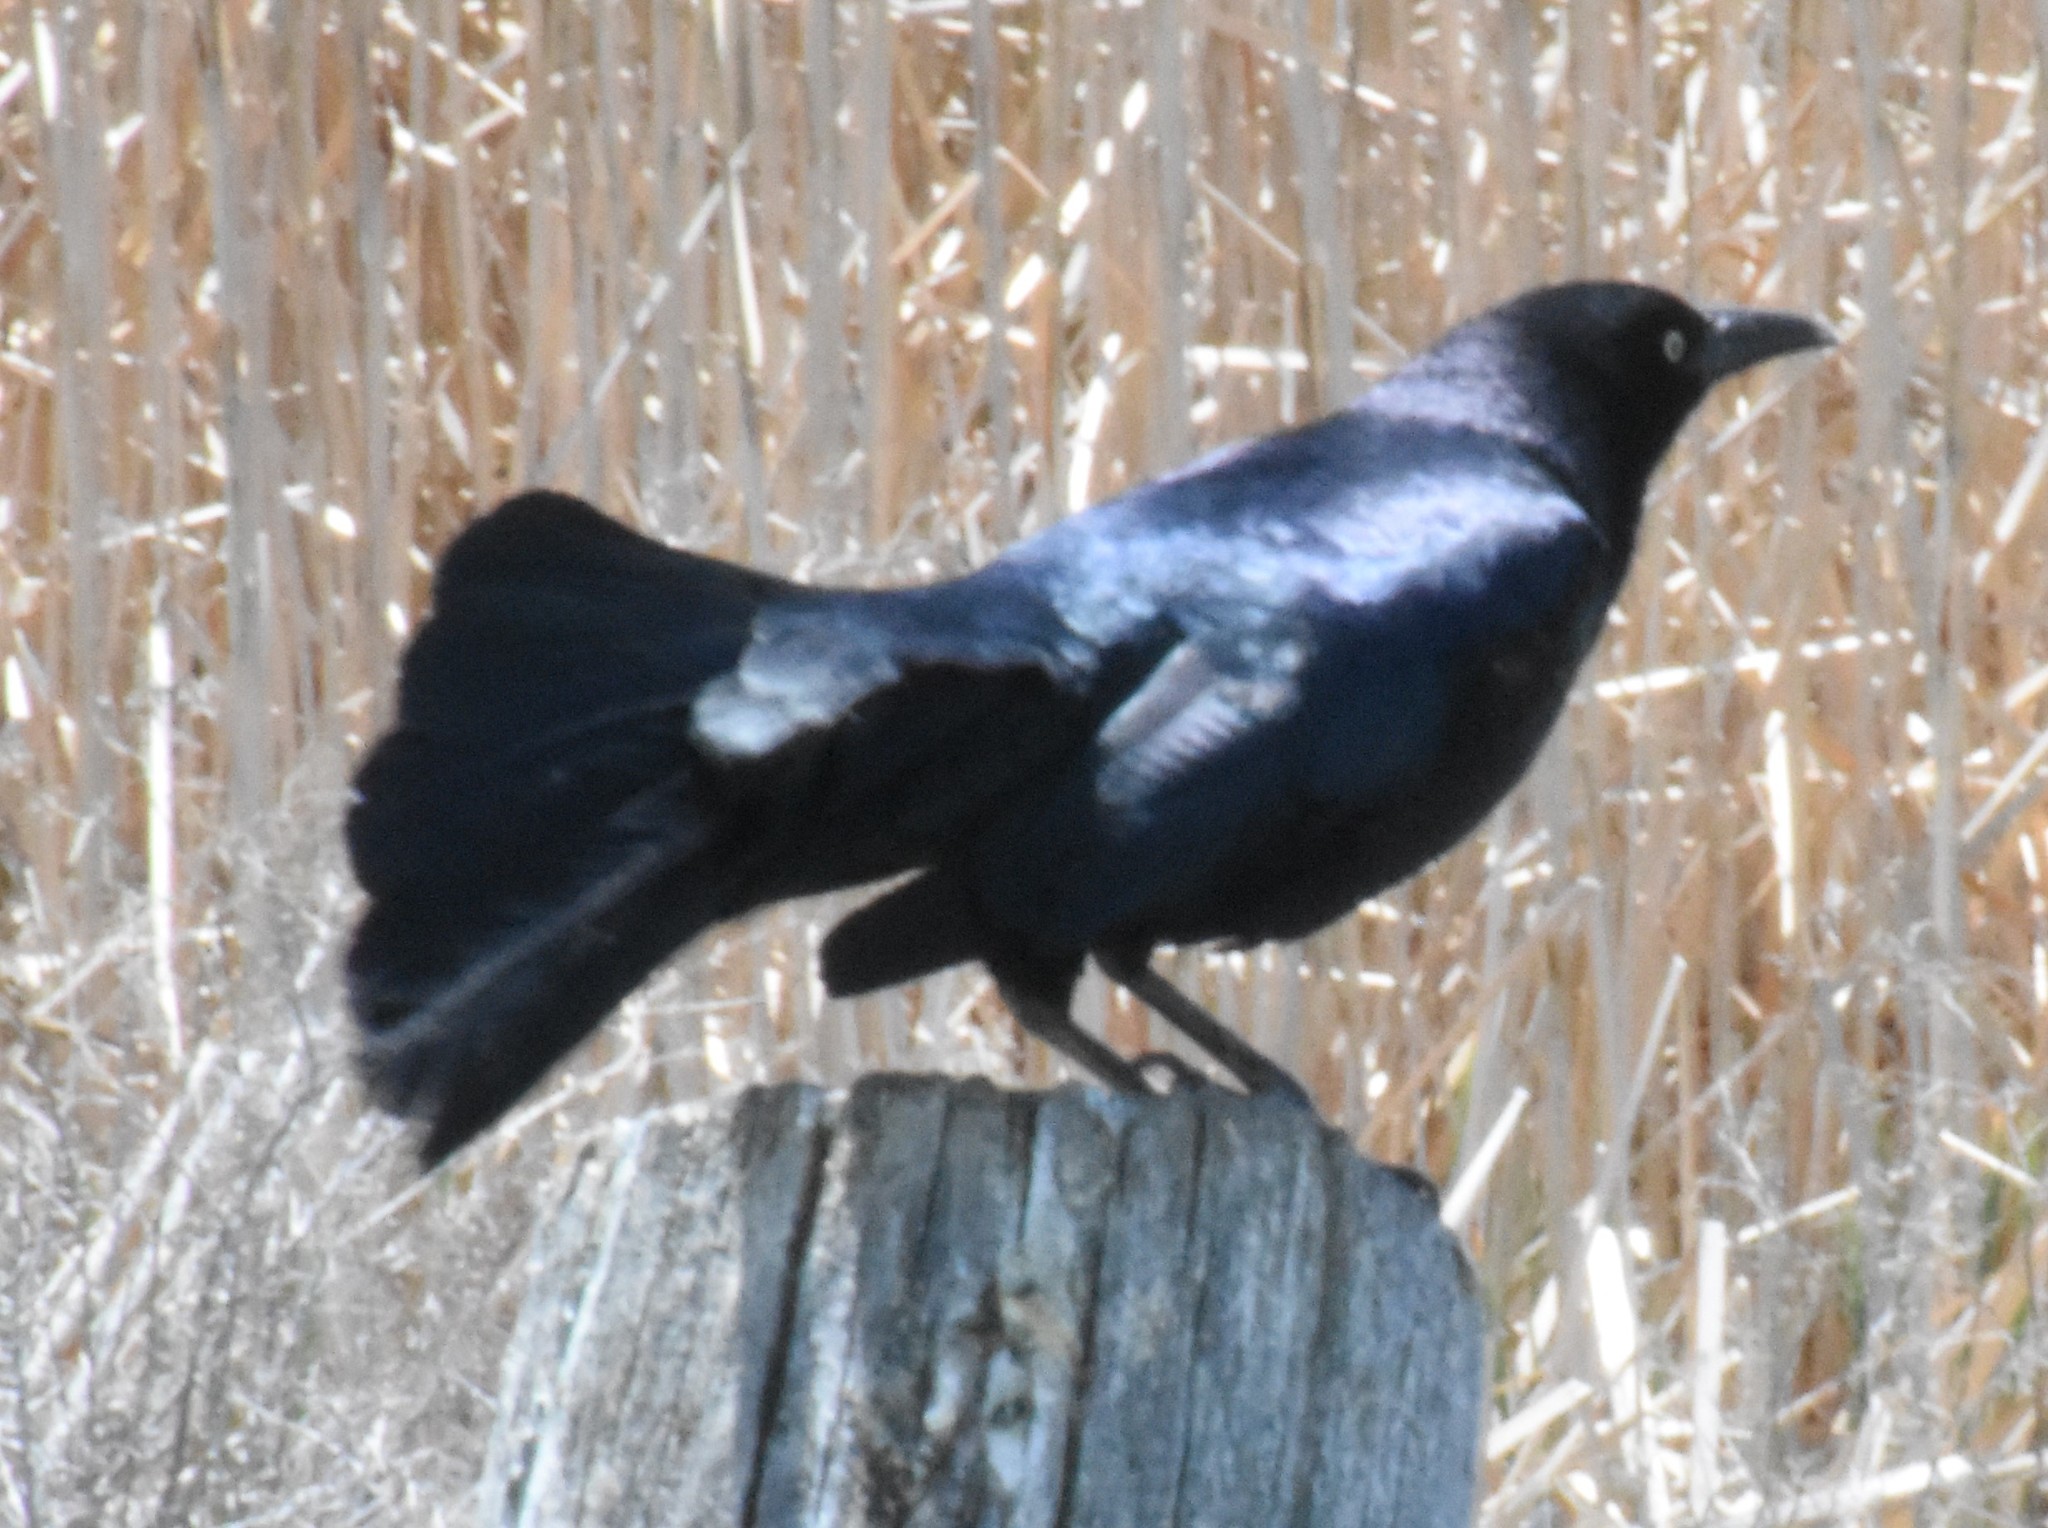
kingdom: Animalia
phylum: Chordata
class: Aves
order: Passeriformes
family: Icteridae
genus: Quiscalus
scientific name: Quiscalus mexicanus
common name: Great-tailed grackle
